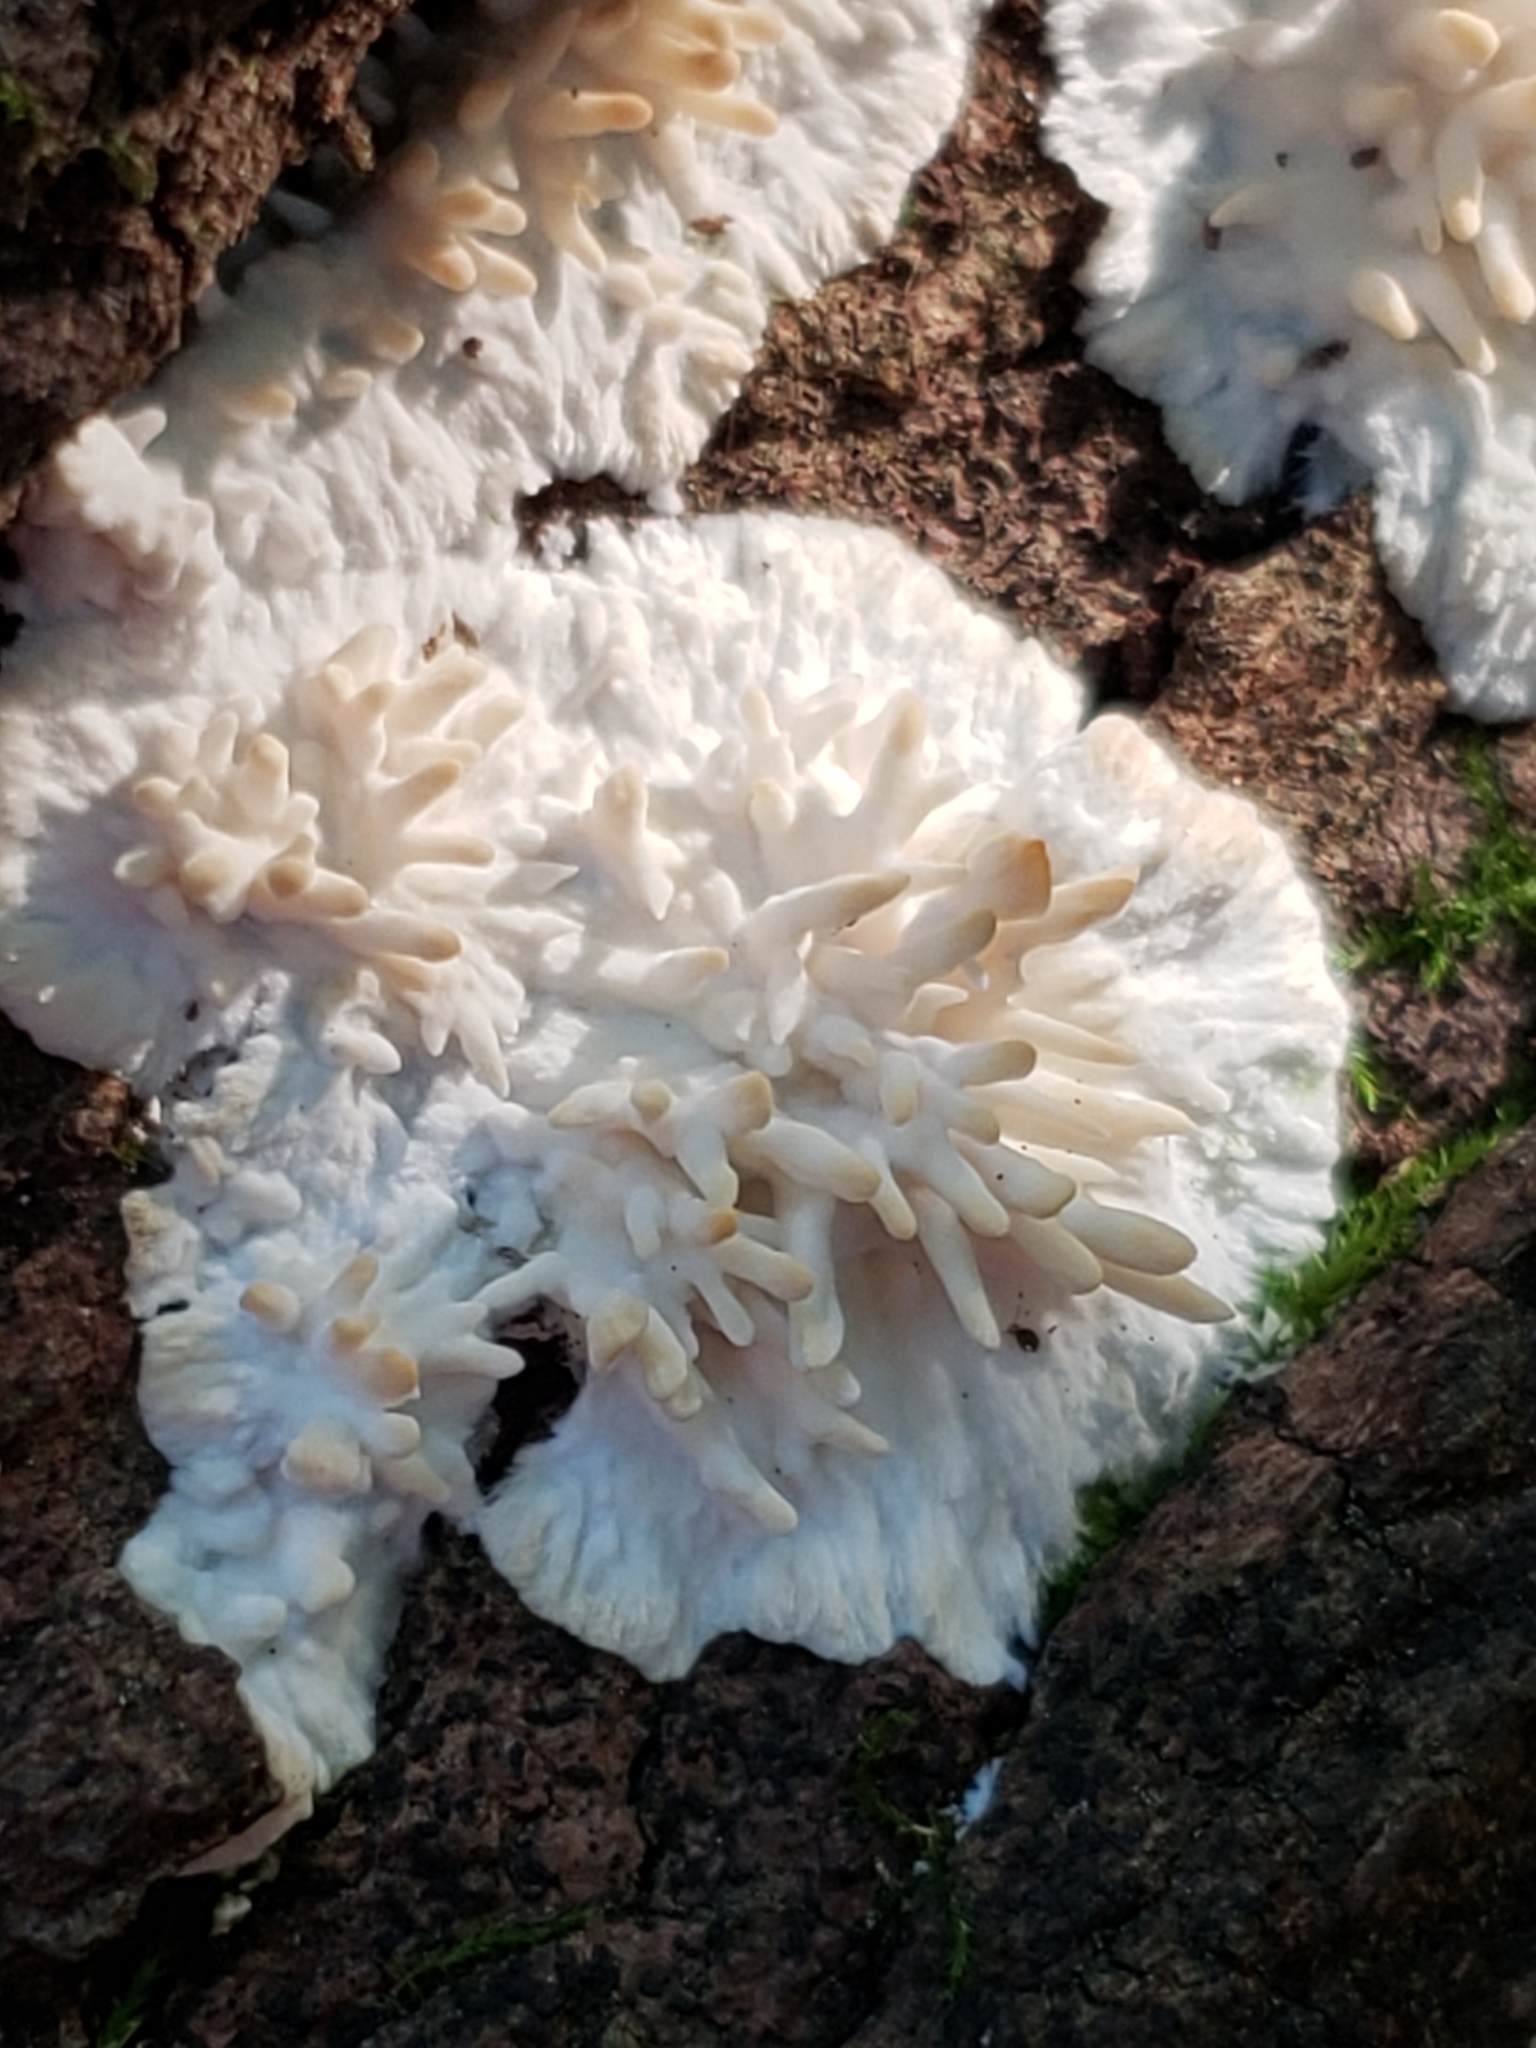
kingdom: Fungi
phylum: Basidiomycota
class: Agaricomycetes
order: Agaricales
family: Radulomycetaceae
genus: Radulomyces
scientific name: Radulomyces copelandii
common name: Asian beauty
